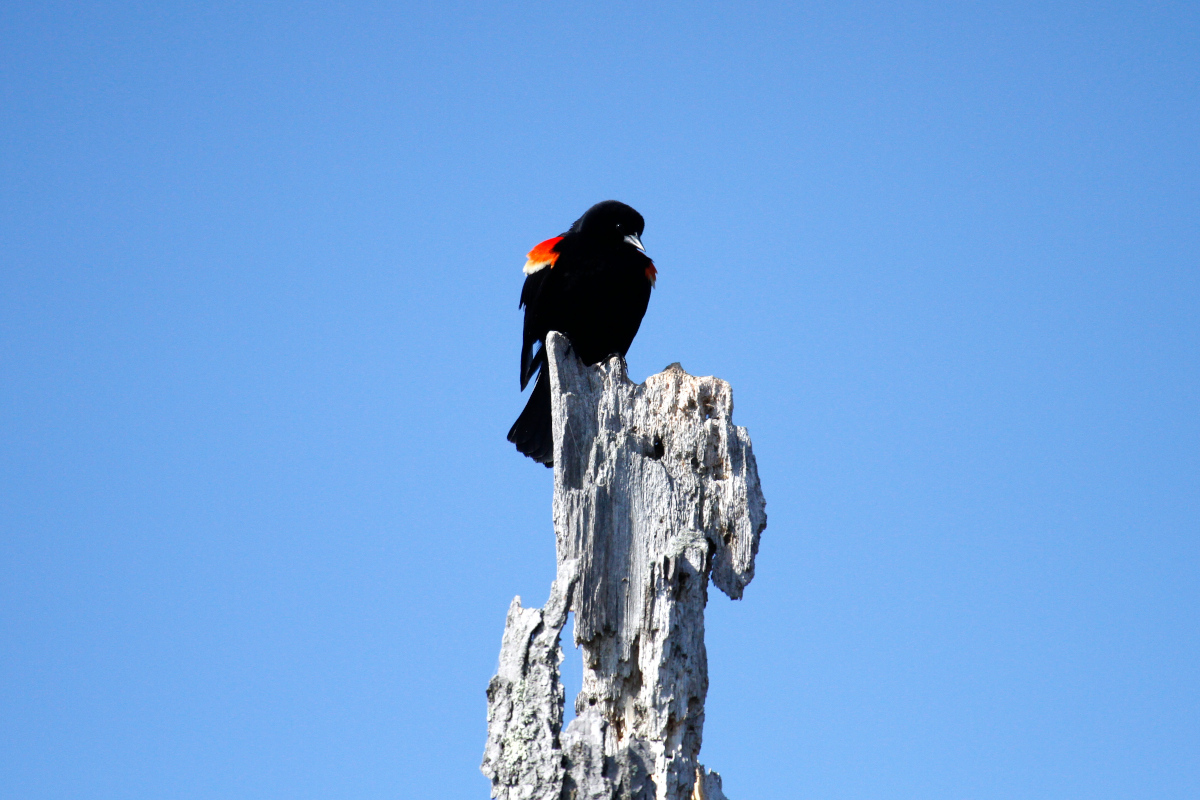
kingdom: Animalia
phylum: Chordata
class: Aves
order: Passeriformes
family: Icteridae
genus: Agelaius
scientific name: Agelaius phoeniceus
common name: Red-winged blackbird
